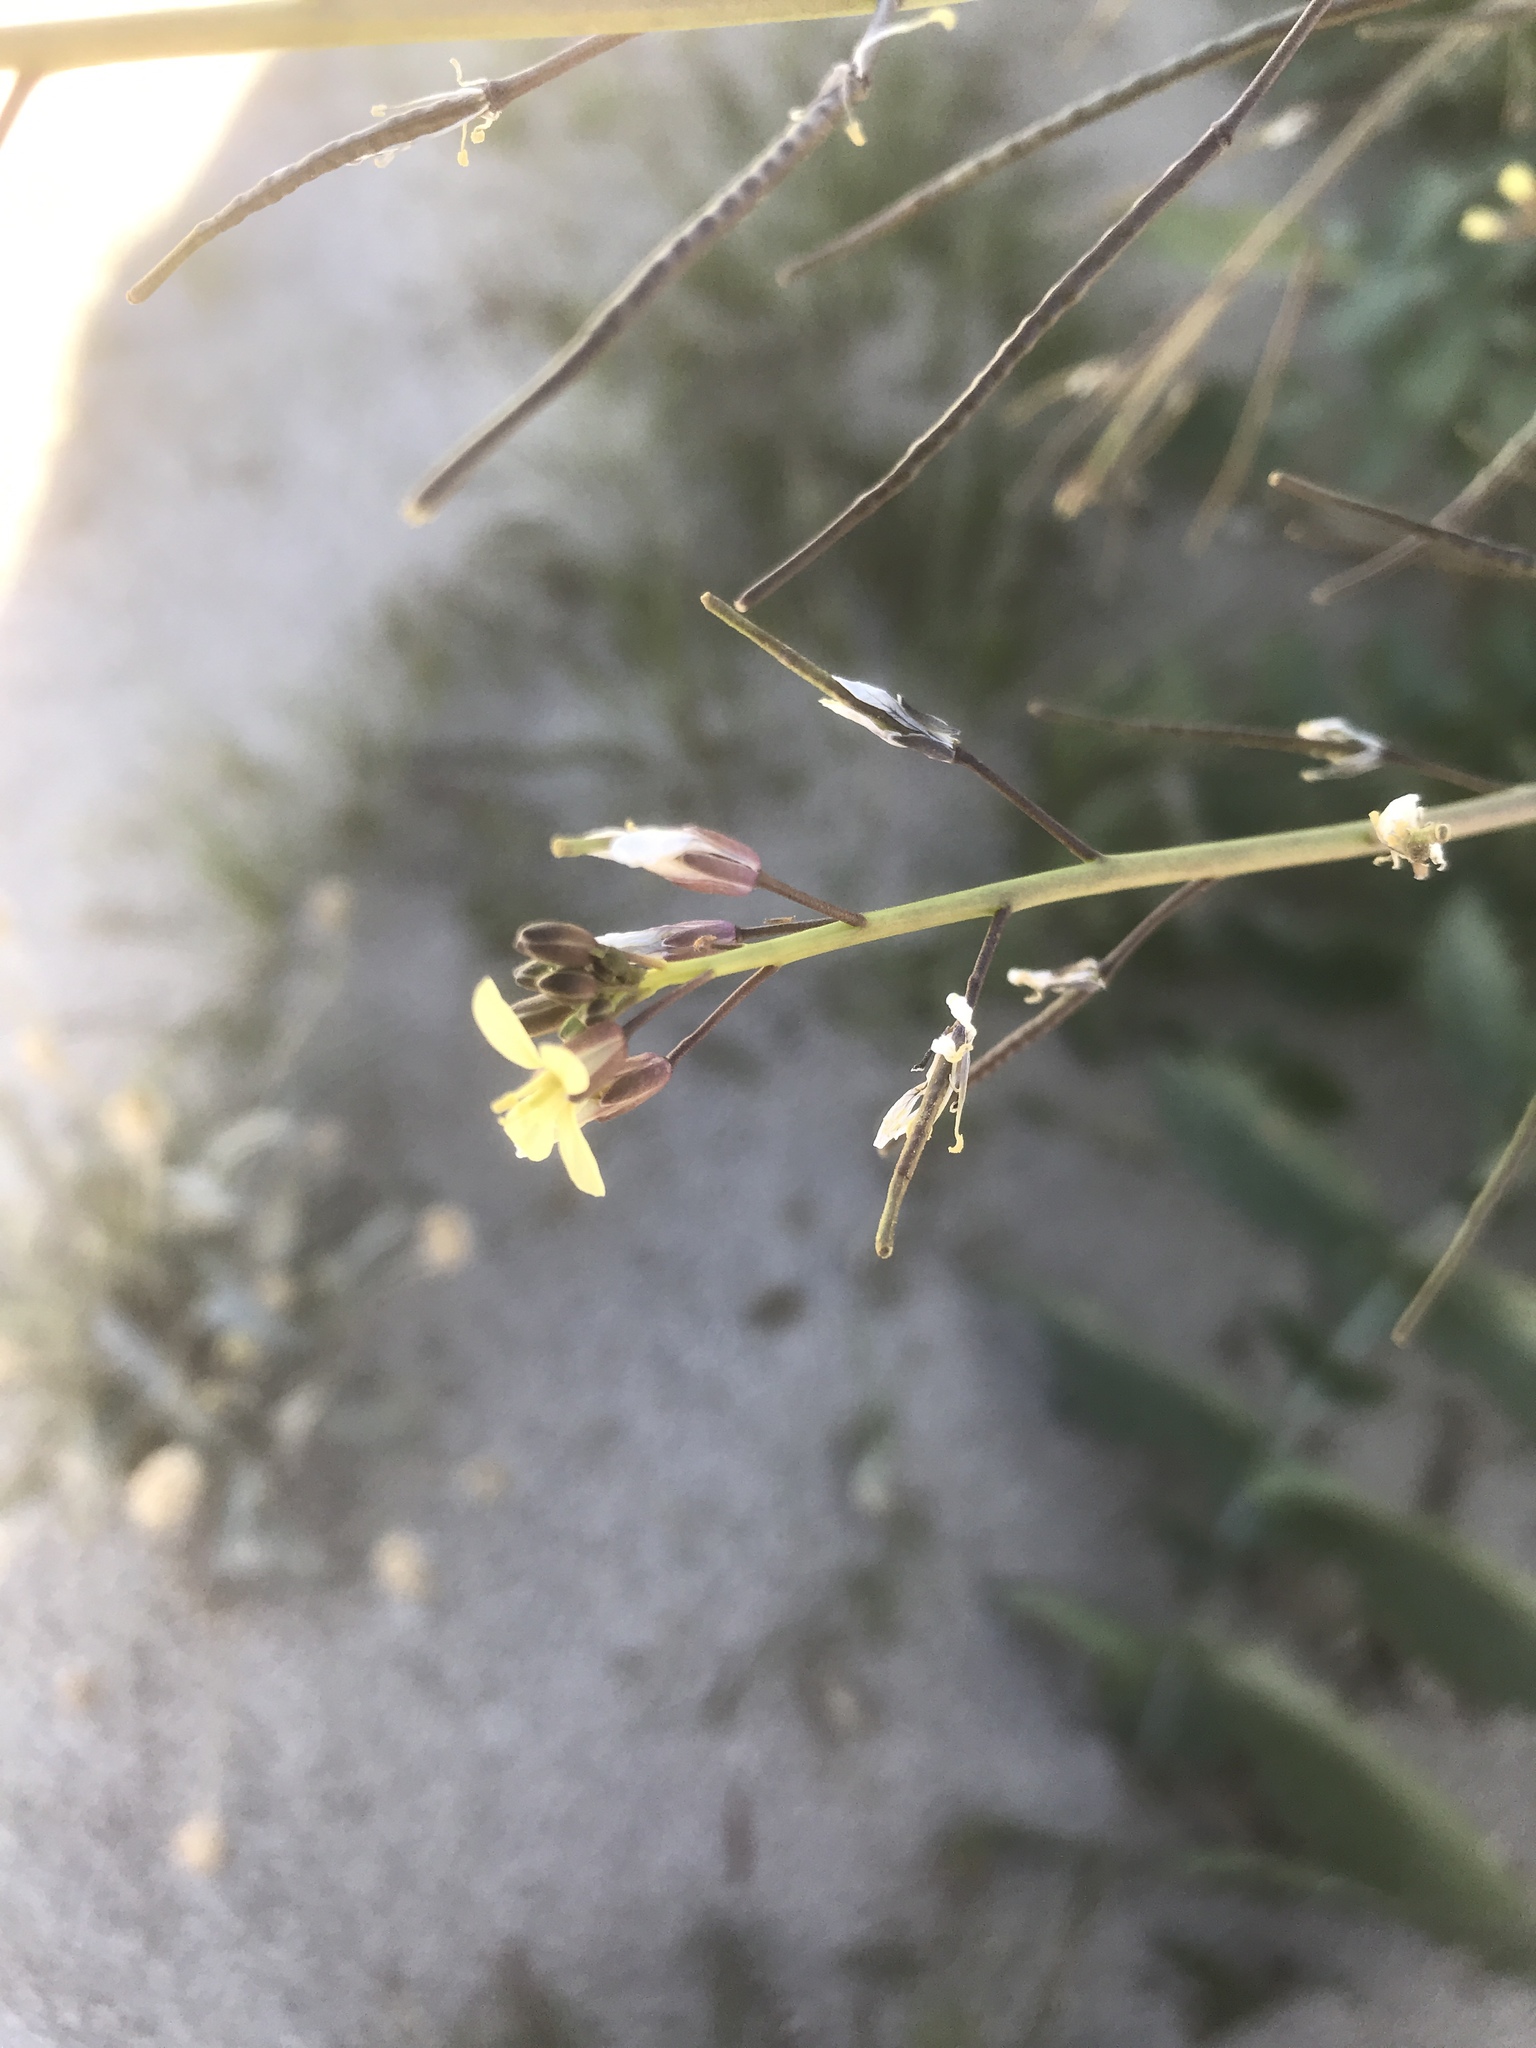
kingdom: Plantae
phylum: Tracheophyta
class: Magnoliopsida
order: Brassicales
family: Brassicaceae
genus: Brassica
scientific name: Brassica tournefortii
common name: Pale cabbage
